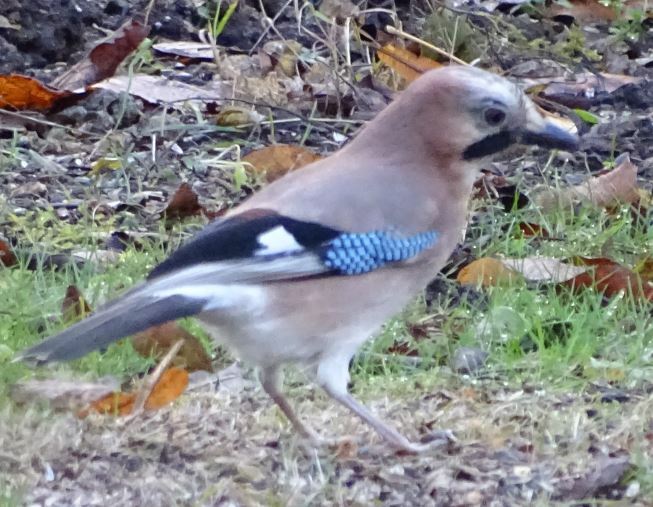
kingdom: Animalia
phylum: Chordata
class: Aves
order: Passeriformes
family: Corvidae
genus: Garrulus
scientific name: Garrulus glandarius
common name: Eurasian jay
